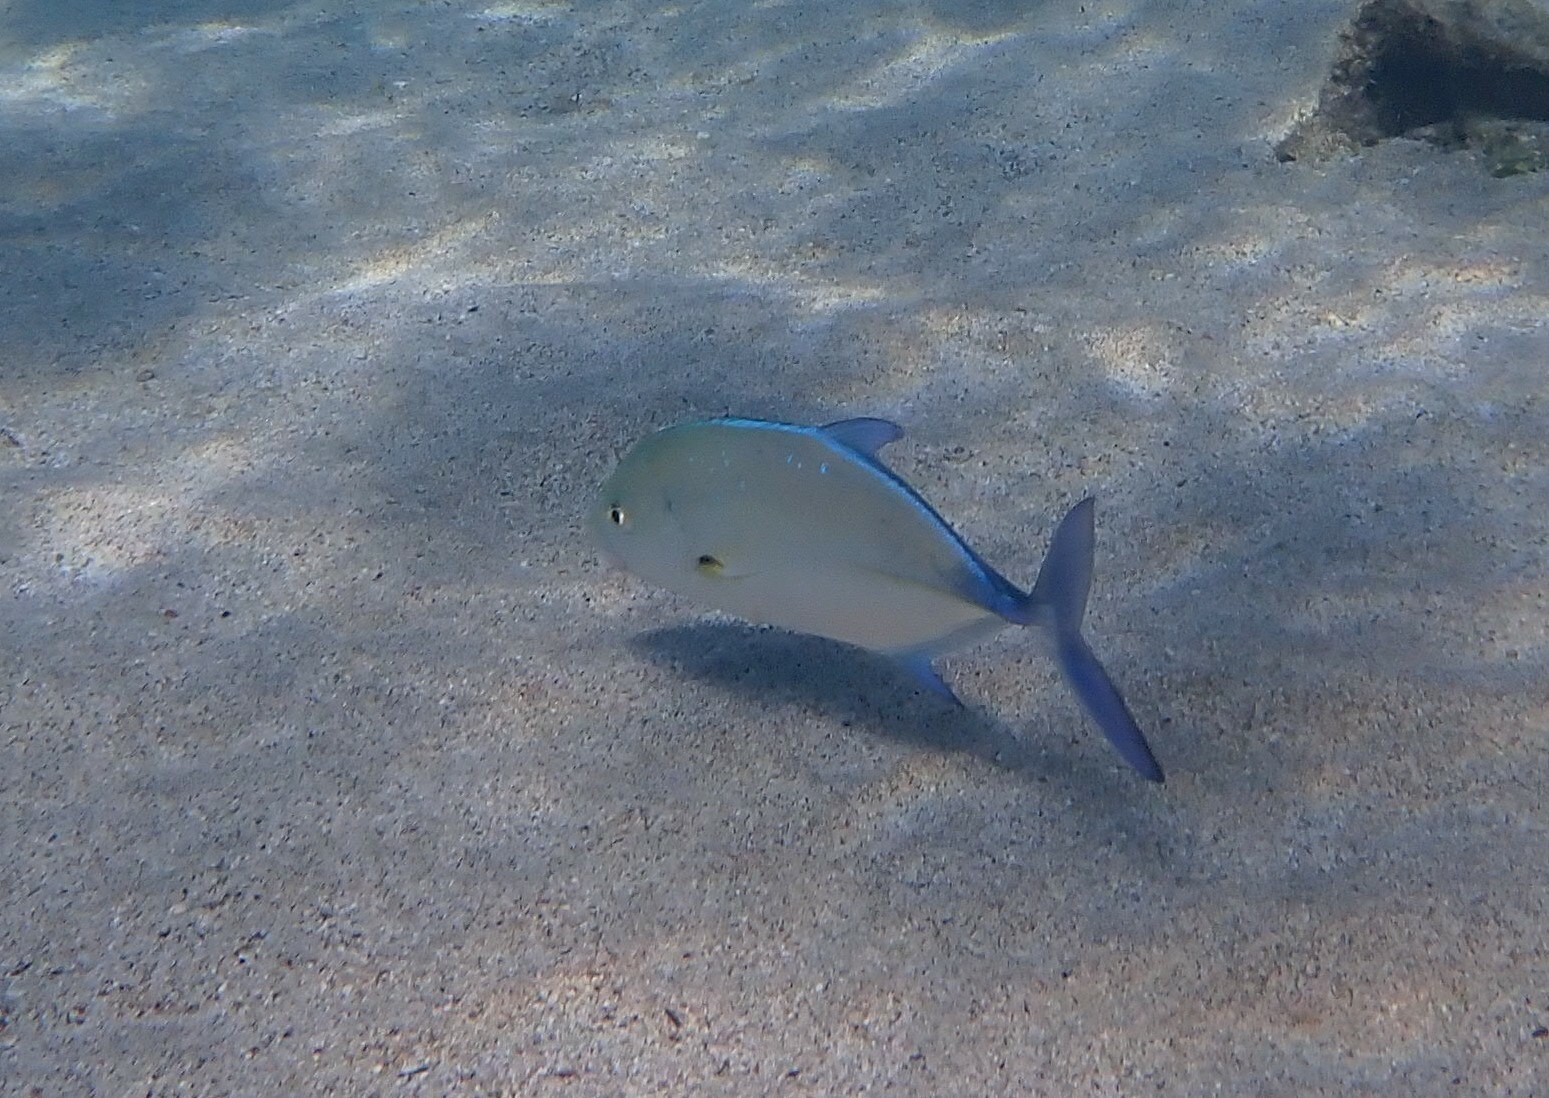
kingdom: Animalia
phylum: Chordata
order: Perciformes
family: Carangidae
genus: Caranx
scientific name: Caranx melampygus
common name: Bluefin trevally
